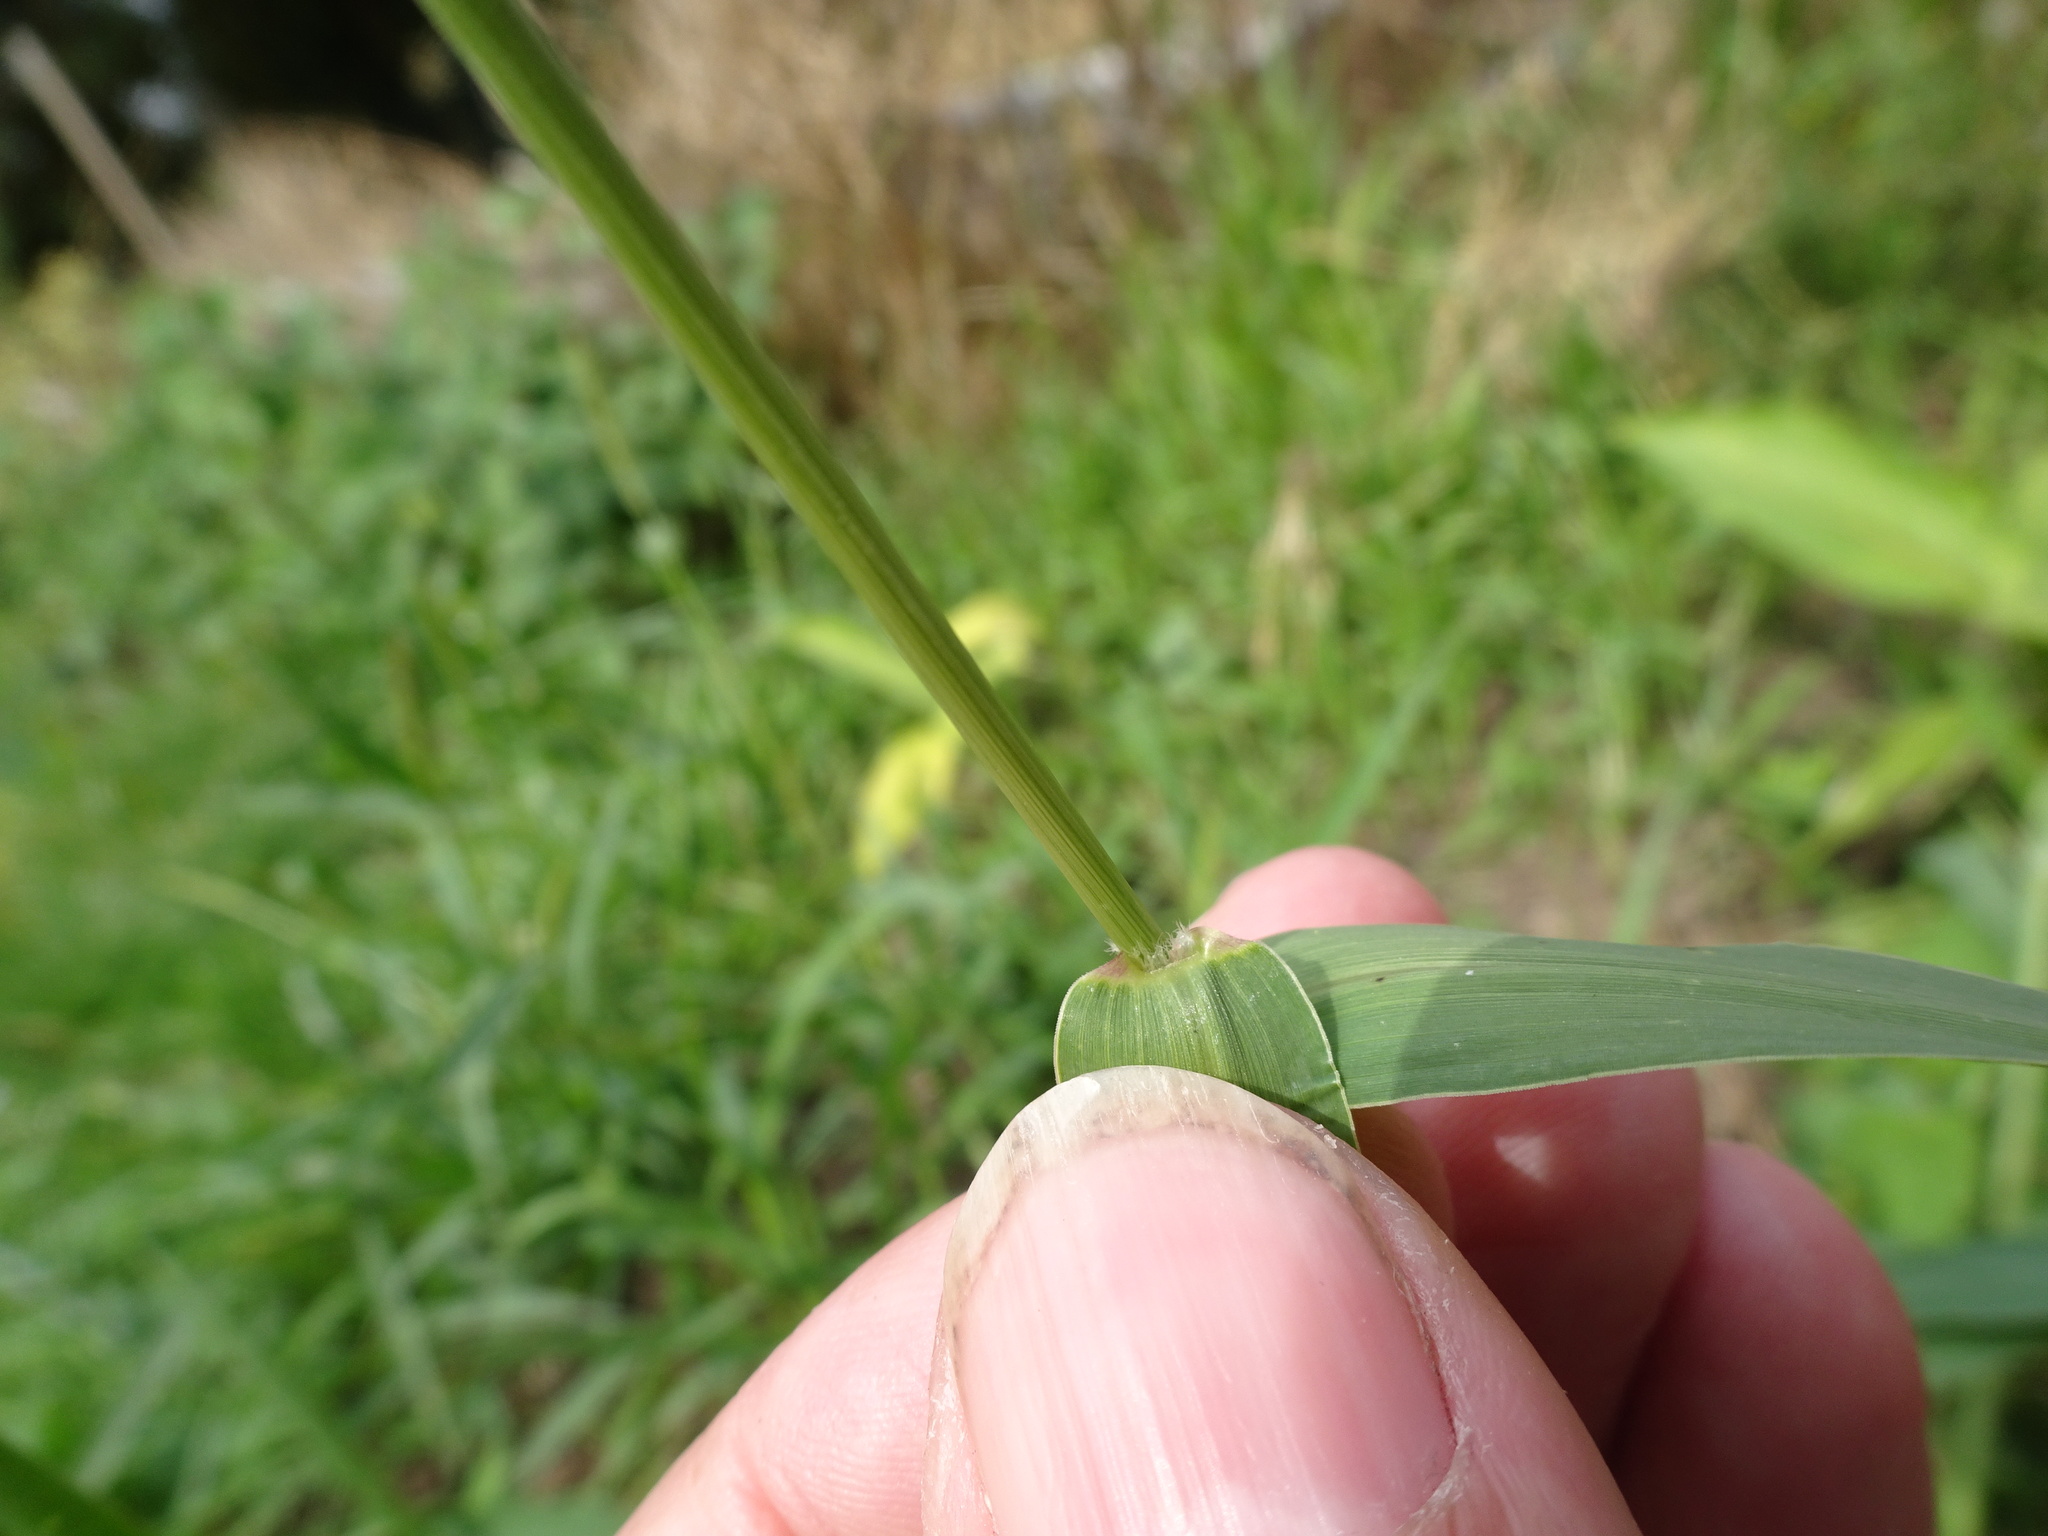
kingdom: Plantae
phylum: Tracheophyta
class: Liliopsida
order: Poales
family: Poaceae
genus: Setaria
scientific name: Setaria verticillata
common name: Hooked bristlegrass
